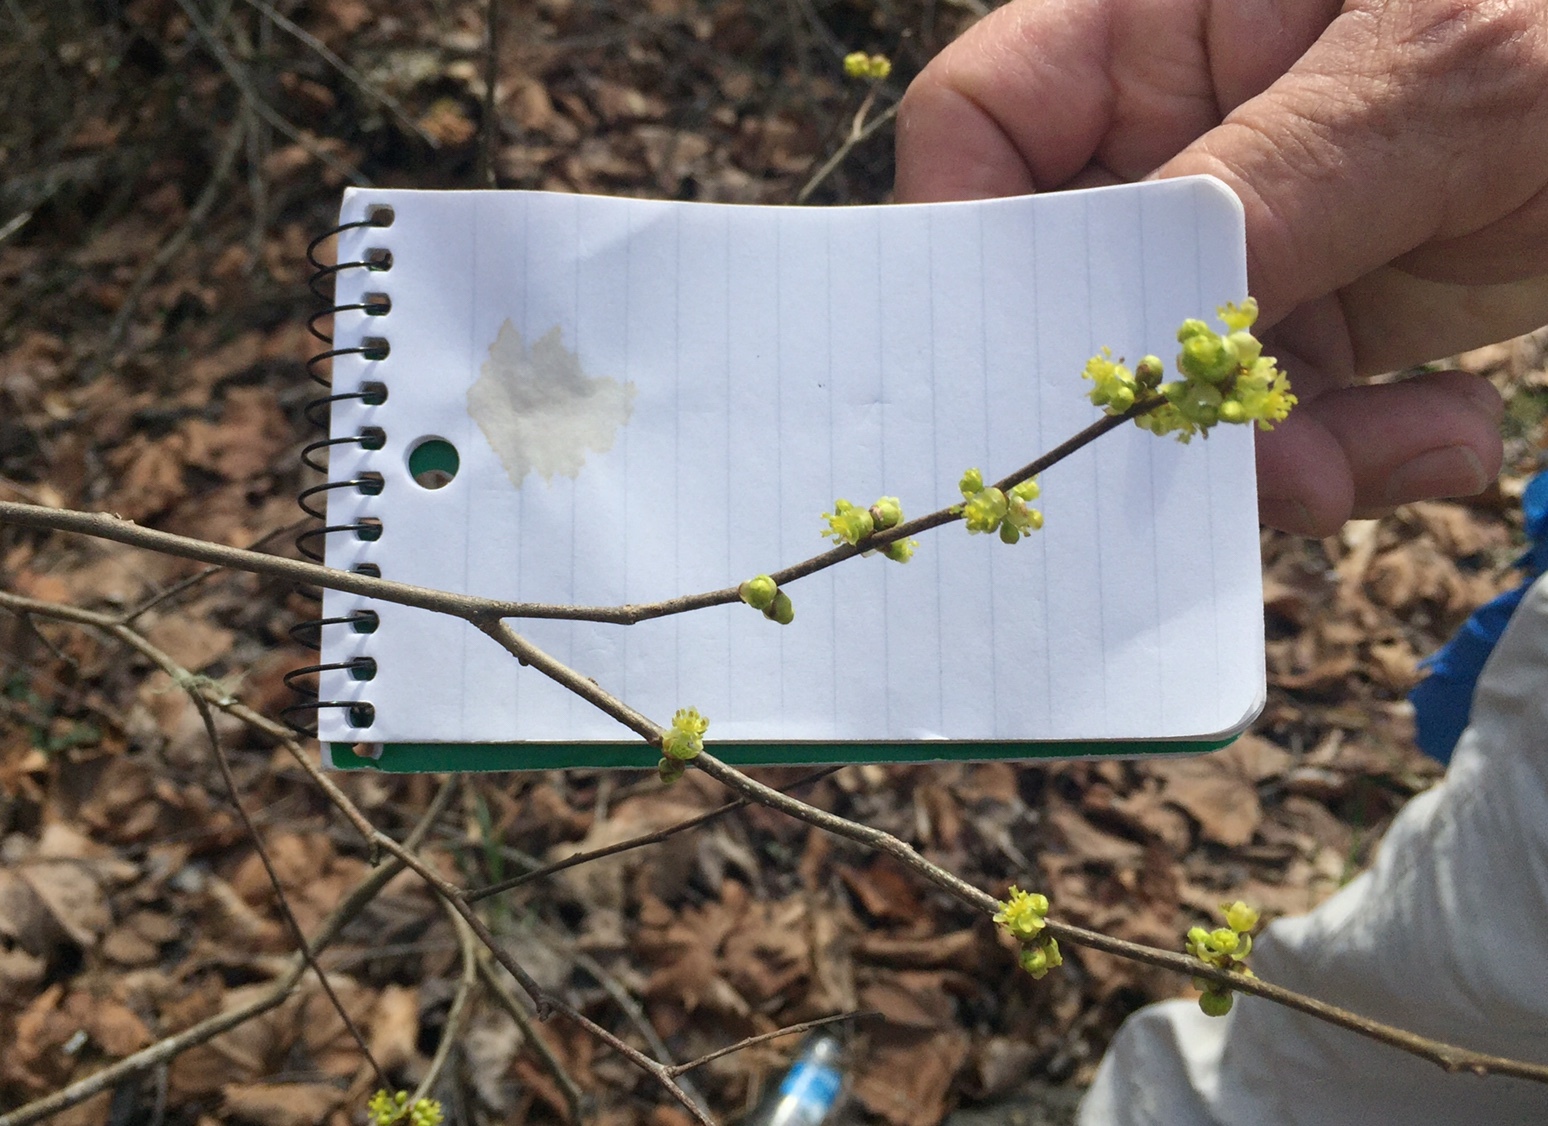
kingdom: Plantae
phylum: Tracheophyta
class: Magnoliopsida
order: Laurales
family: Lauraceae
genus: Lindera
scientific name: Lindera benzoin
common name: Spicebush
